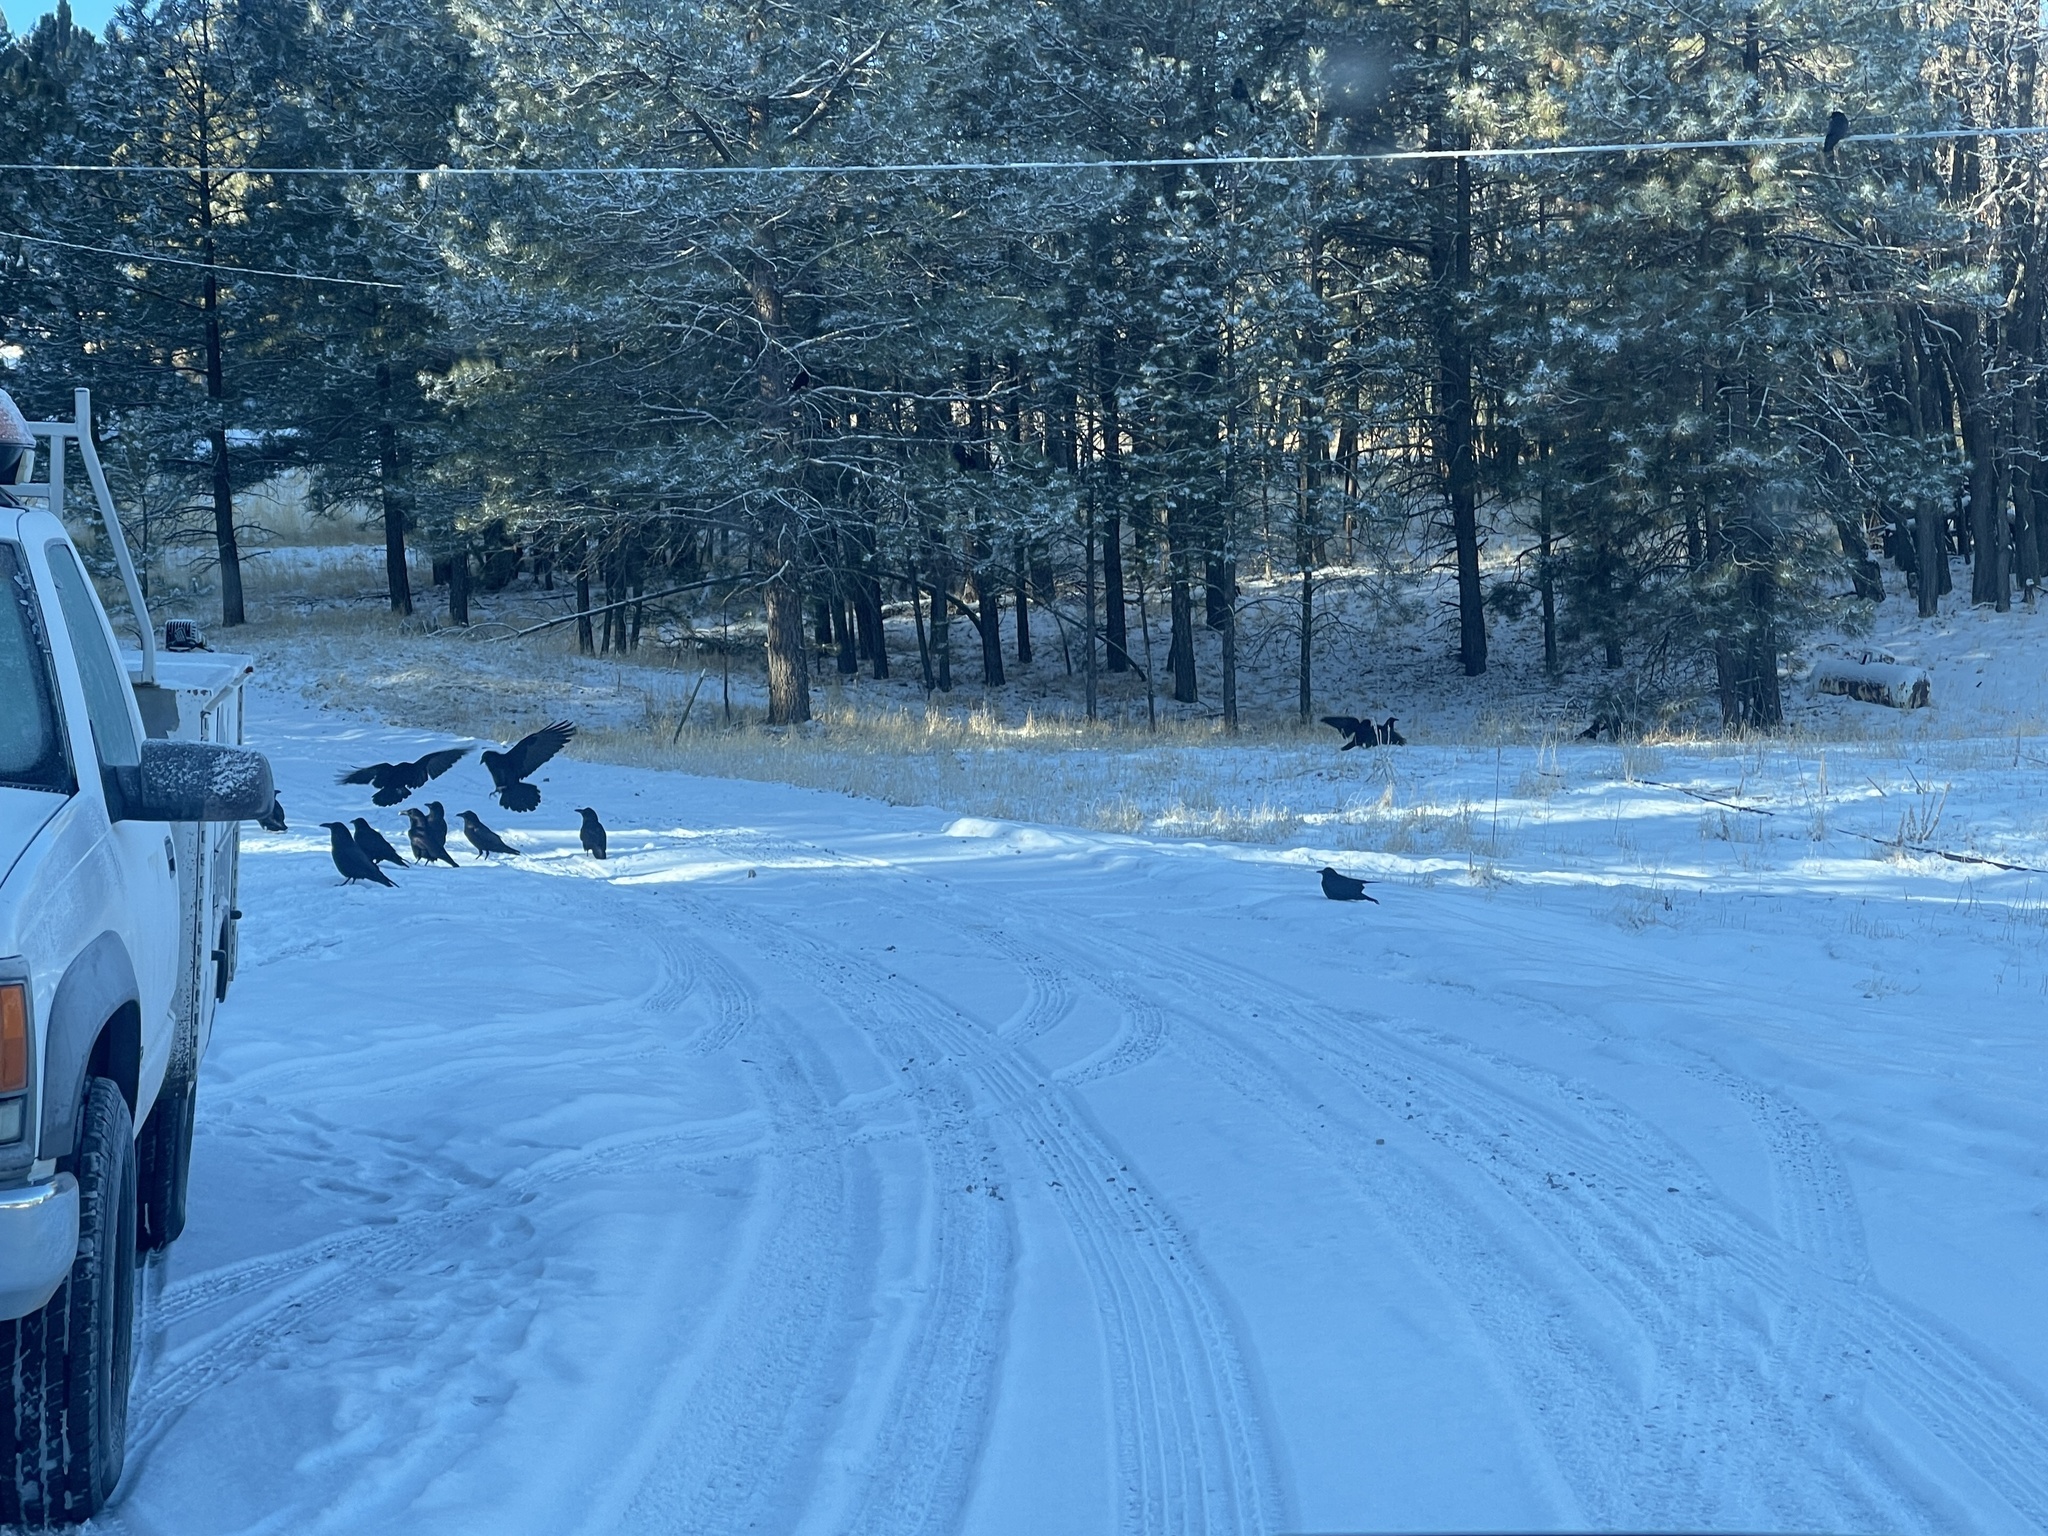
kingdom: Animalia
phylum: Chordata
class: Aves
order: Passeriformes
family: Corvidae
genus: Corvus
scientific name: Corvus corax
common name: Common raven
